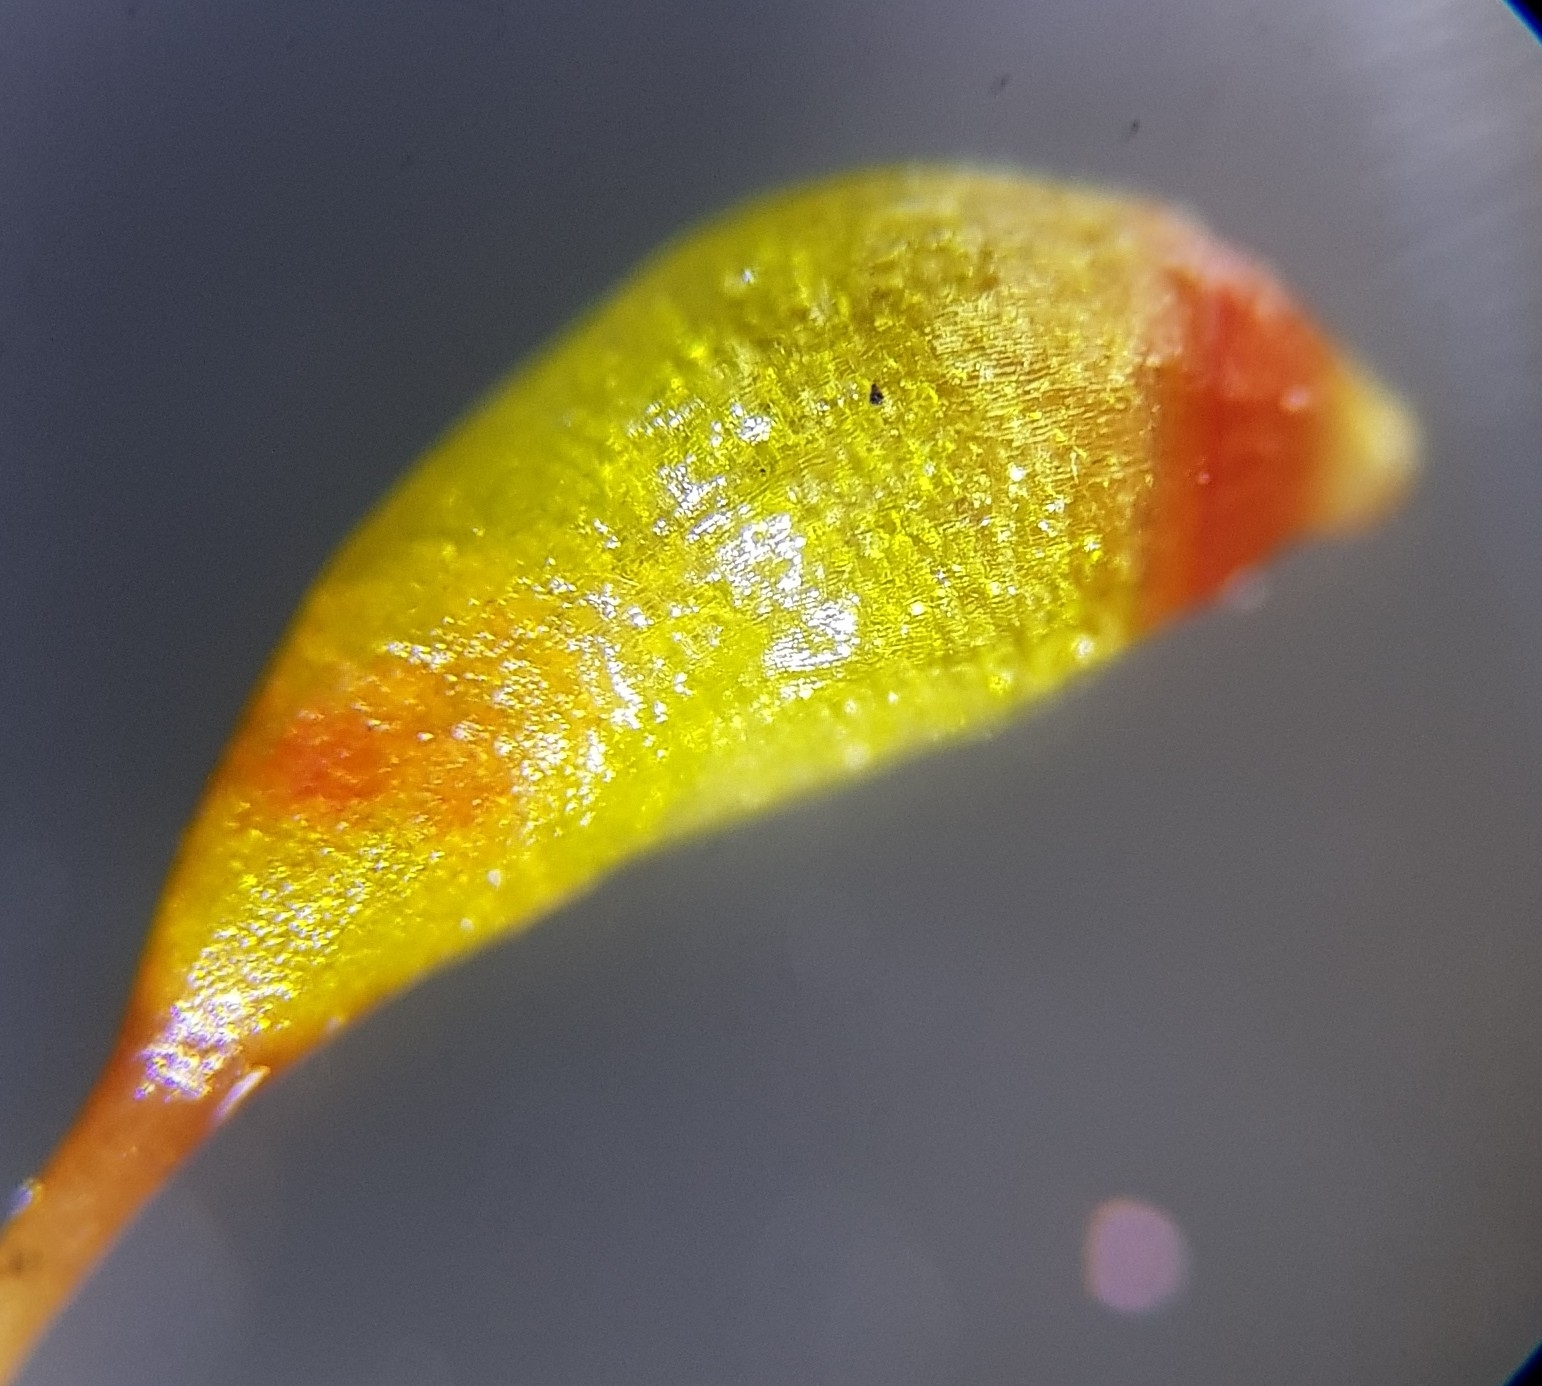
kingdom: Plantae
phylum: Bryophyta
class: Bryopsida
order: Funariales
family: Funariaceae
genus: Entosthodon
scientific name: Entosthodon muhlenbergii
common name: Muhlenberg's cord-moss
